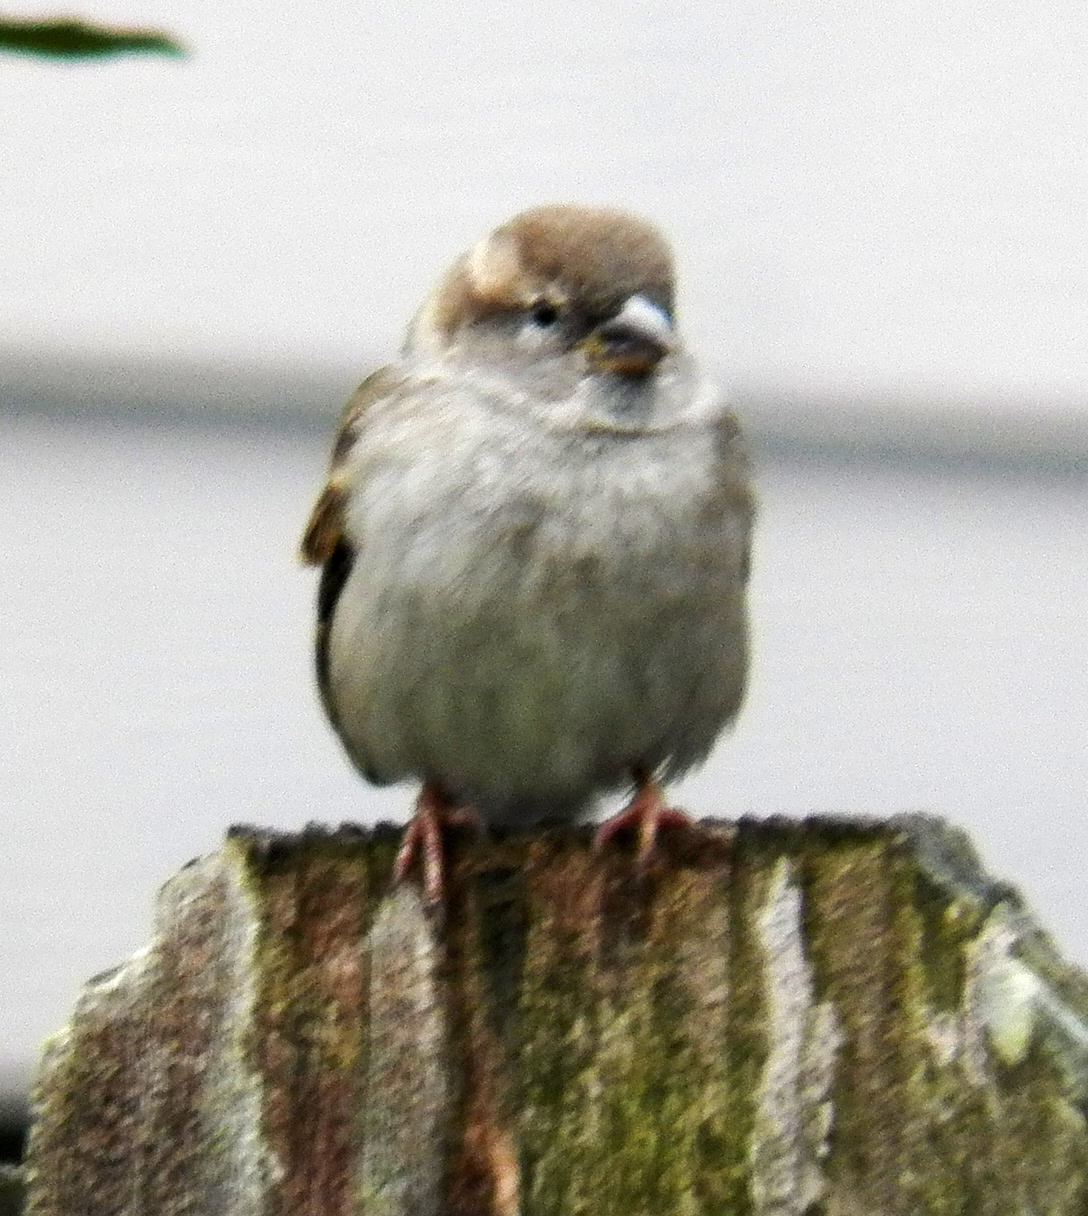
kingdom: Animalia
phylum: Chordata
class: Aves
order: Passeriformes
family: Passeridae
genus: Passer
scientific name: Passer domesticus
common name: House sparrow
